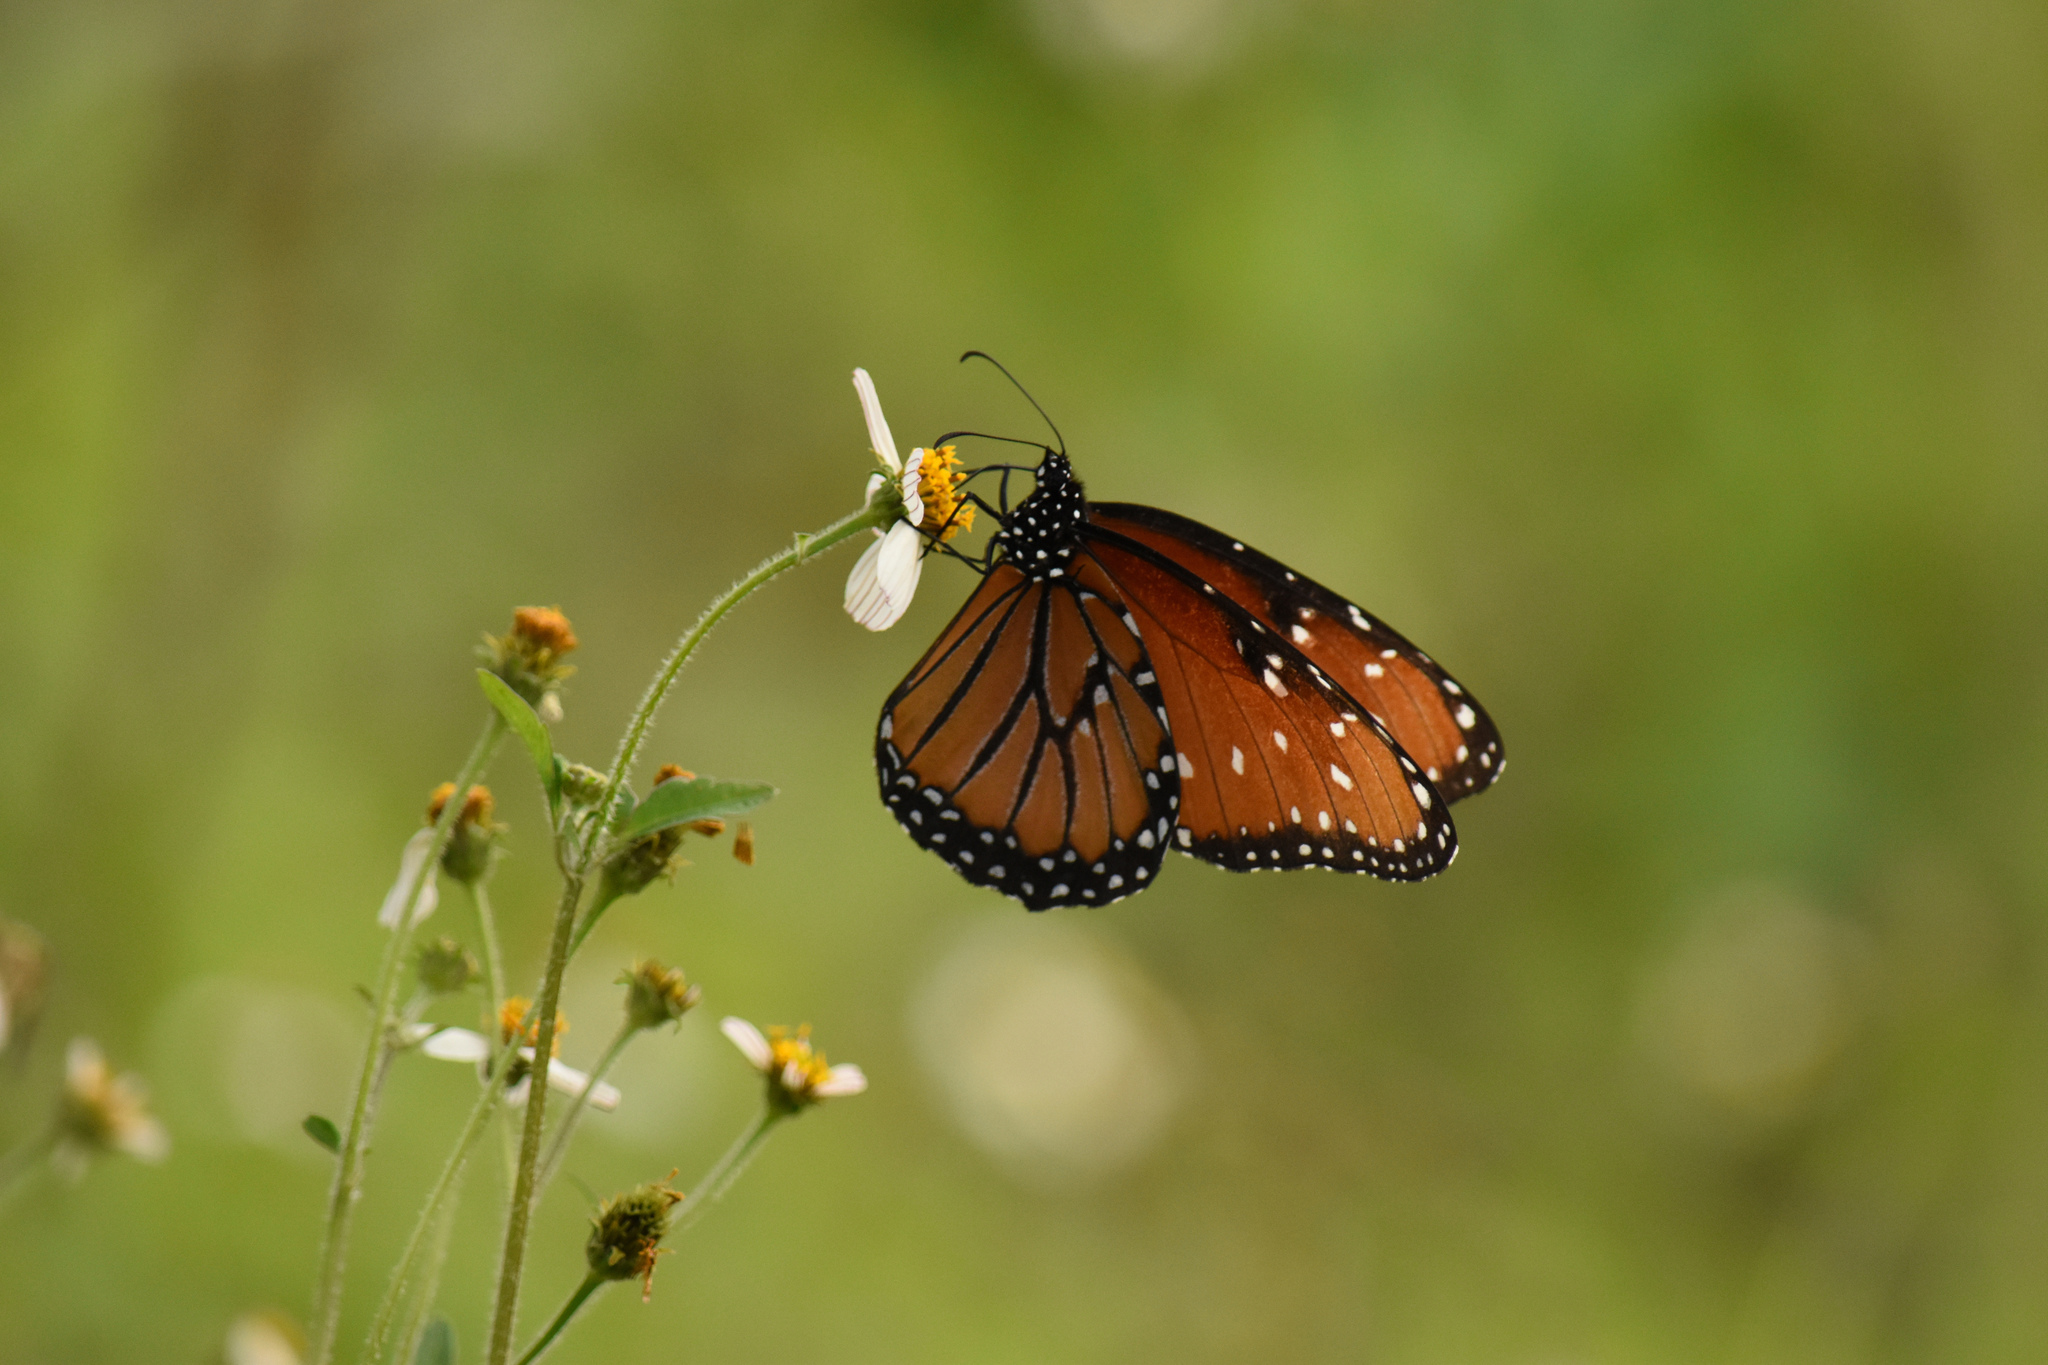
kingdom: Animalia
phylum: Arthropoda
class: Insecta
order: Lepidoptera
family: Nymphalidae
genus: Danaus
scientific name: Danaus gilippus
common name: Queen
